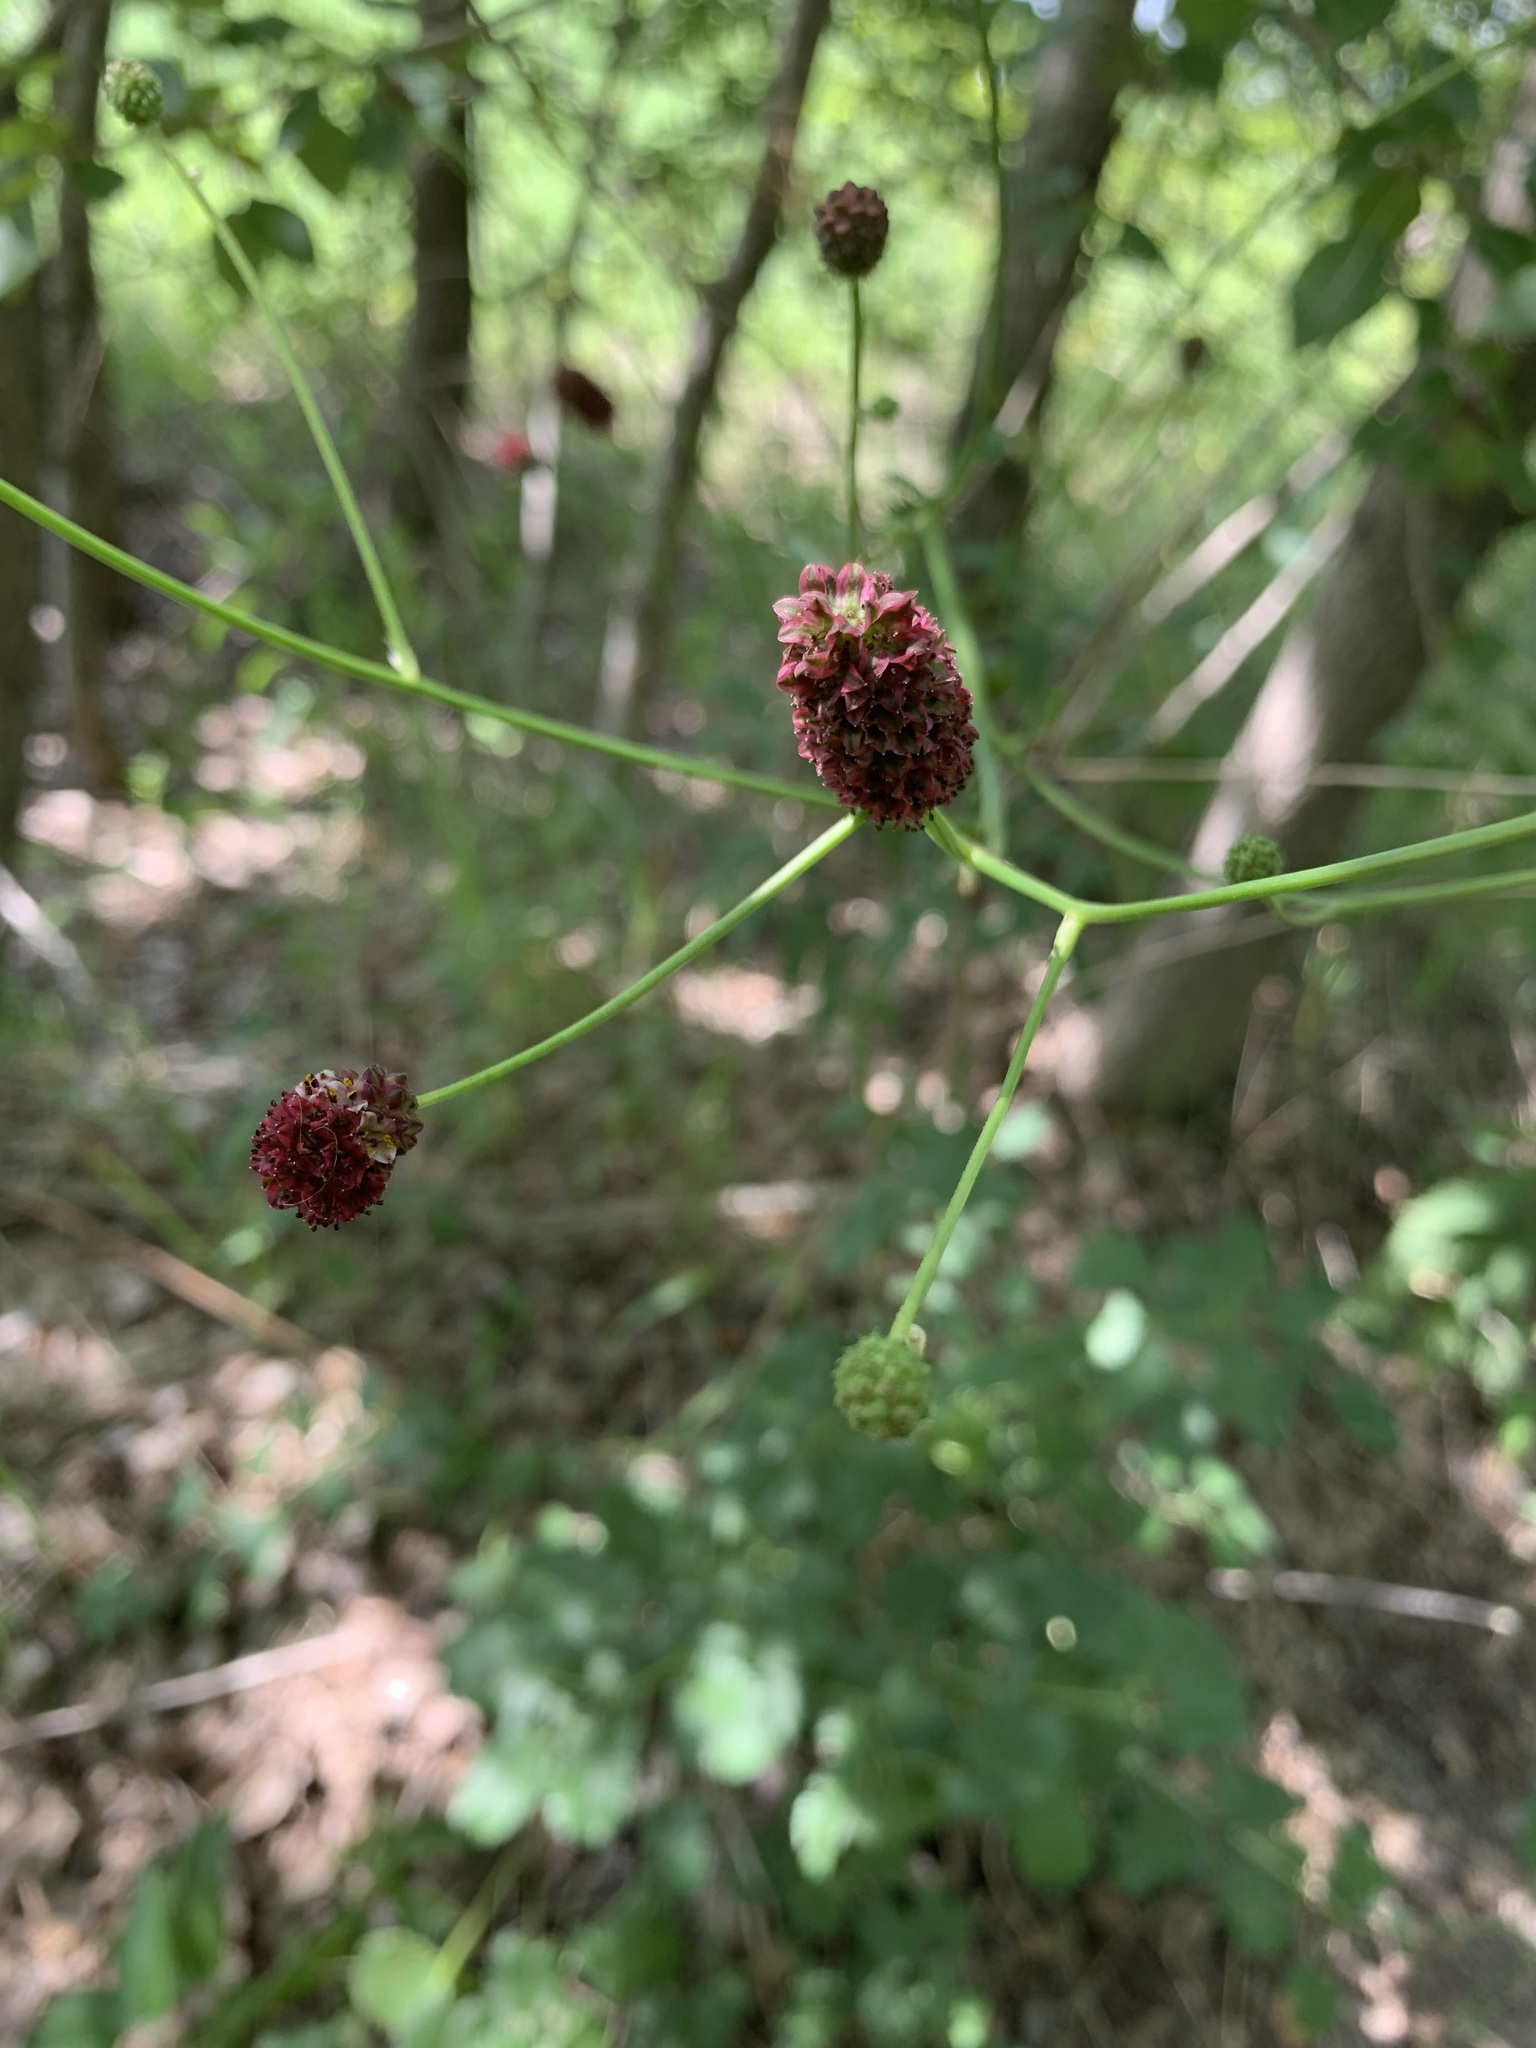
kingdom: Plantae
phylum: Tracheophyta
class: Magnoliopsida
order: Rosales
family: Rosaceae
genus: Sanguisorba
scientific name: Sanguisorba officinalis
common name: Great burnet
